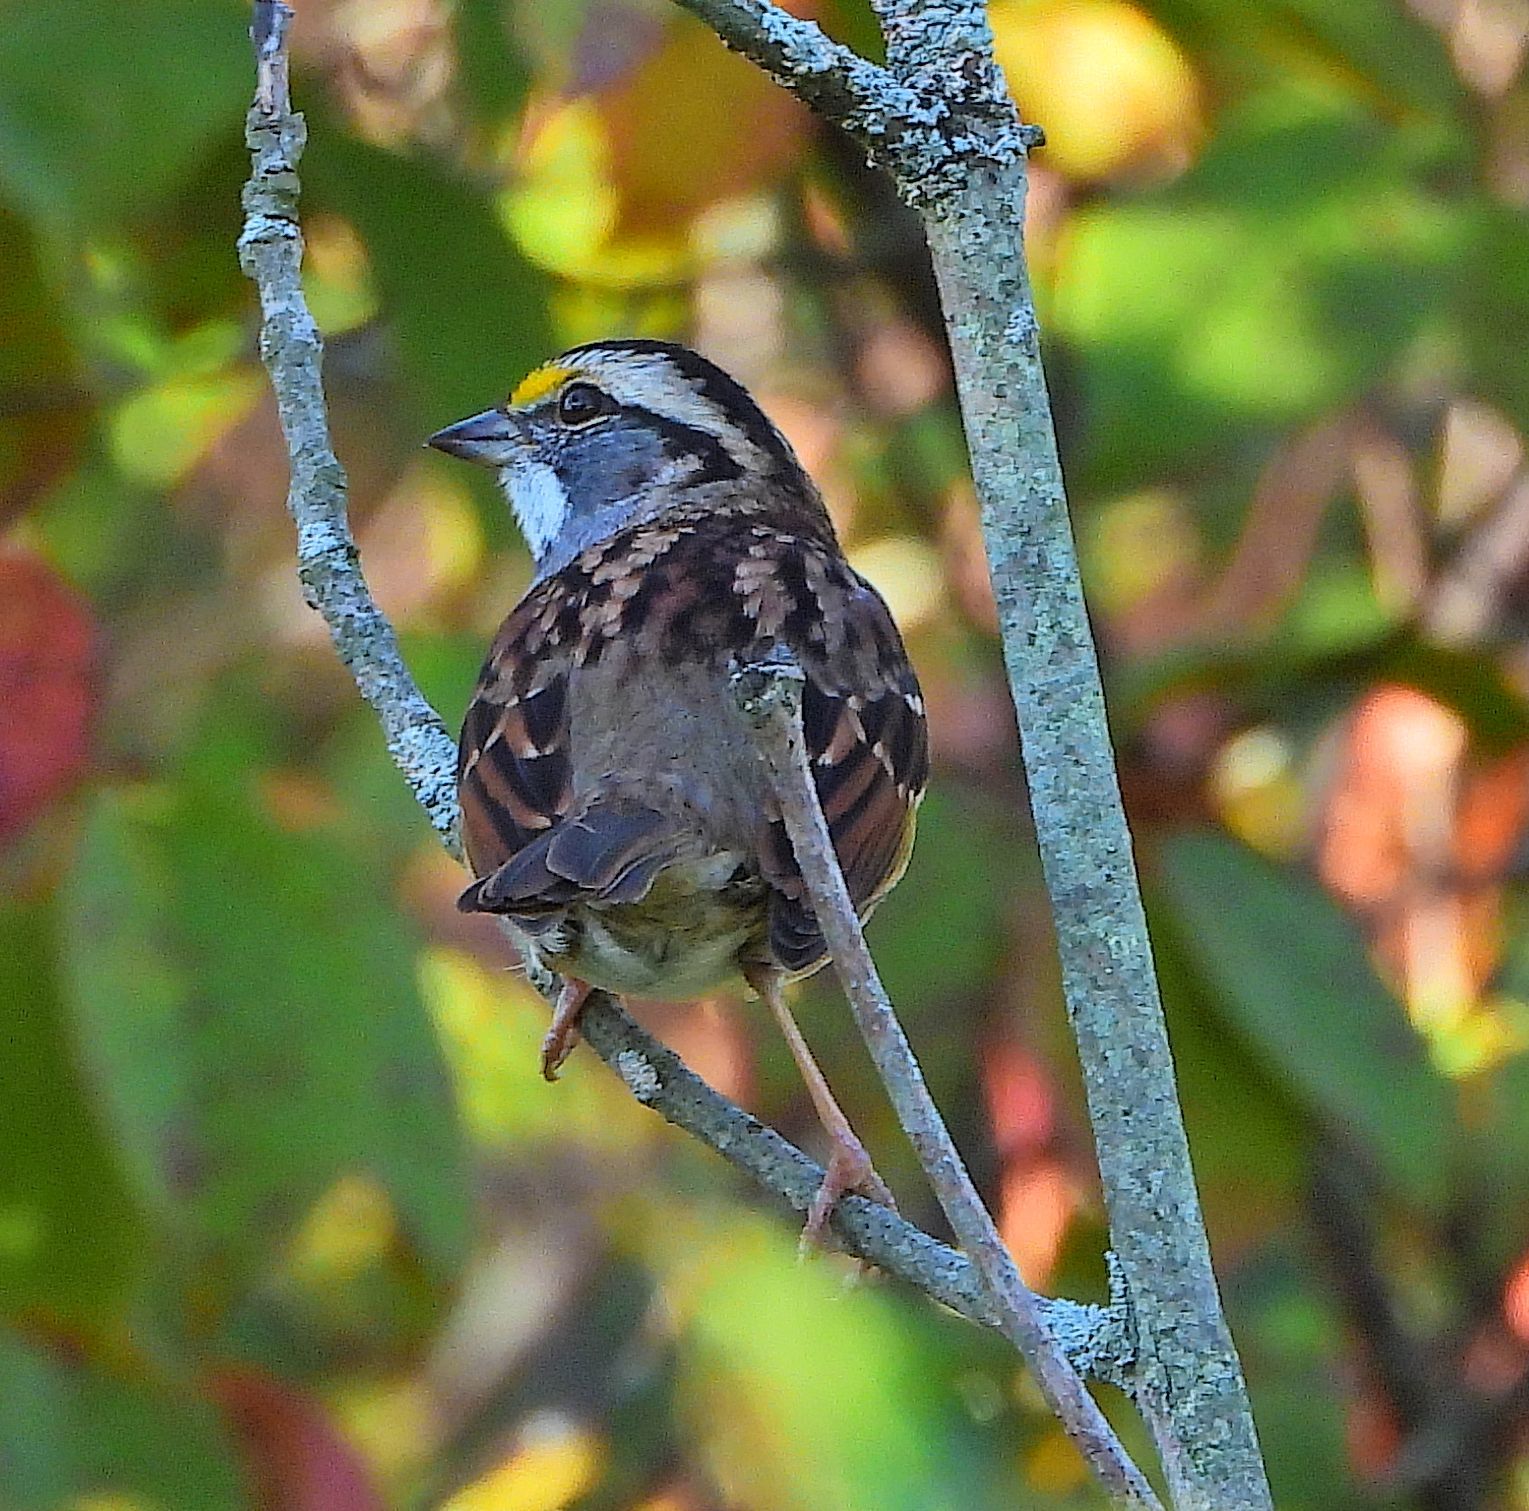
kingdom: Animalia
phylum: Chordata
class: Aves
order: Passeriformes
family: Passerellidae
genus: Zonotrichia
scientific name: Zonotrichia albicollis
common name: White-throated sparrow
